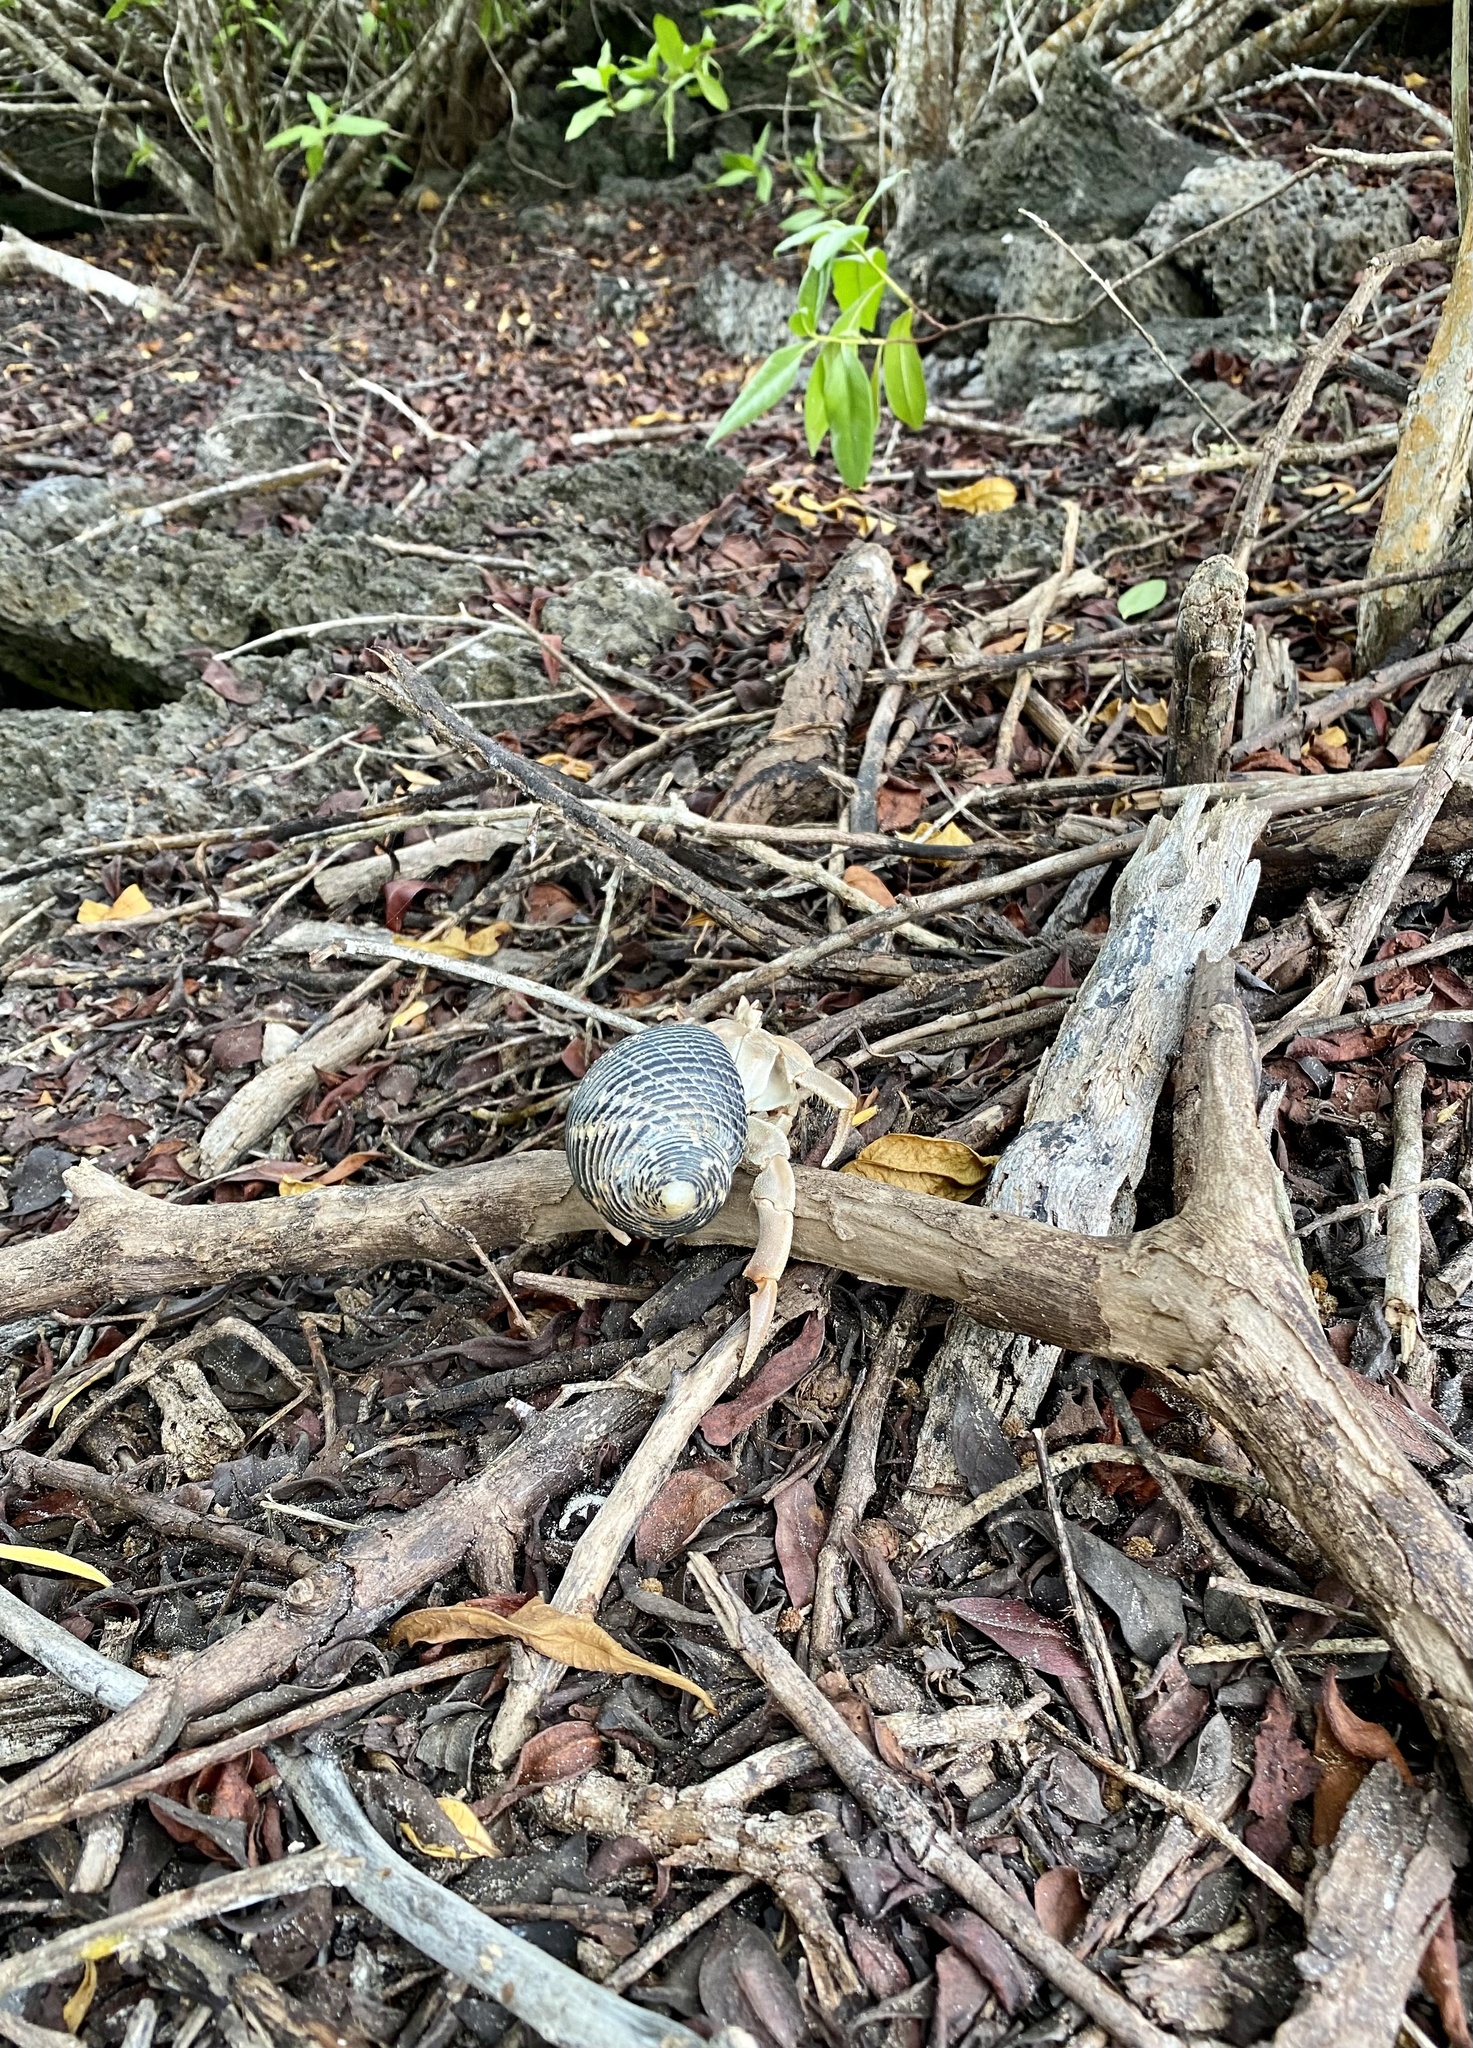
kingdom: Animalia
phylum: Arthropoda
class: Malacostraca
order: Decapoda
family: Coenobitidae
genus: Coenobita
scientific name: Coenobita compressus
